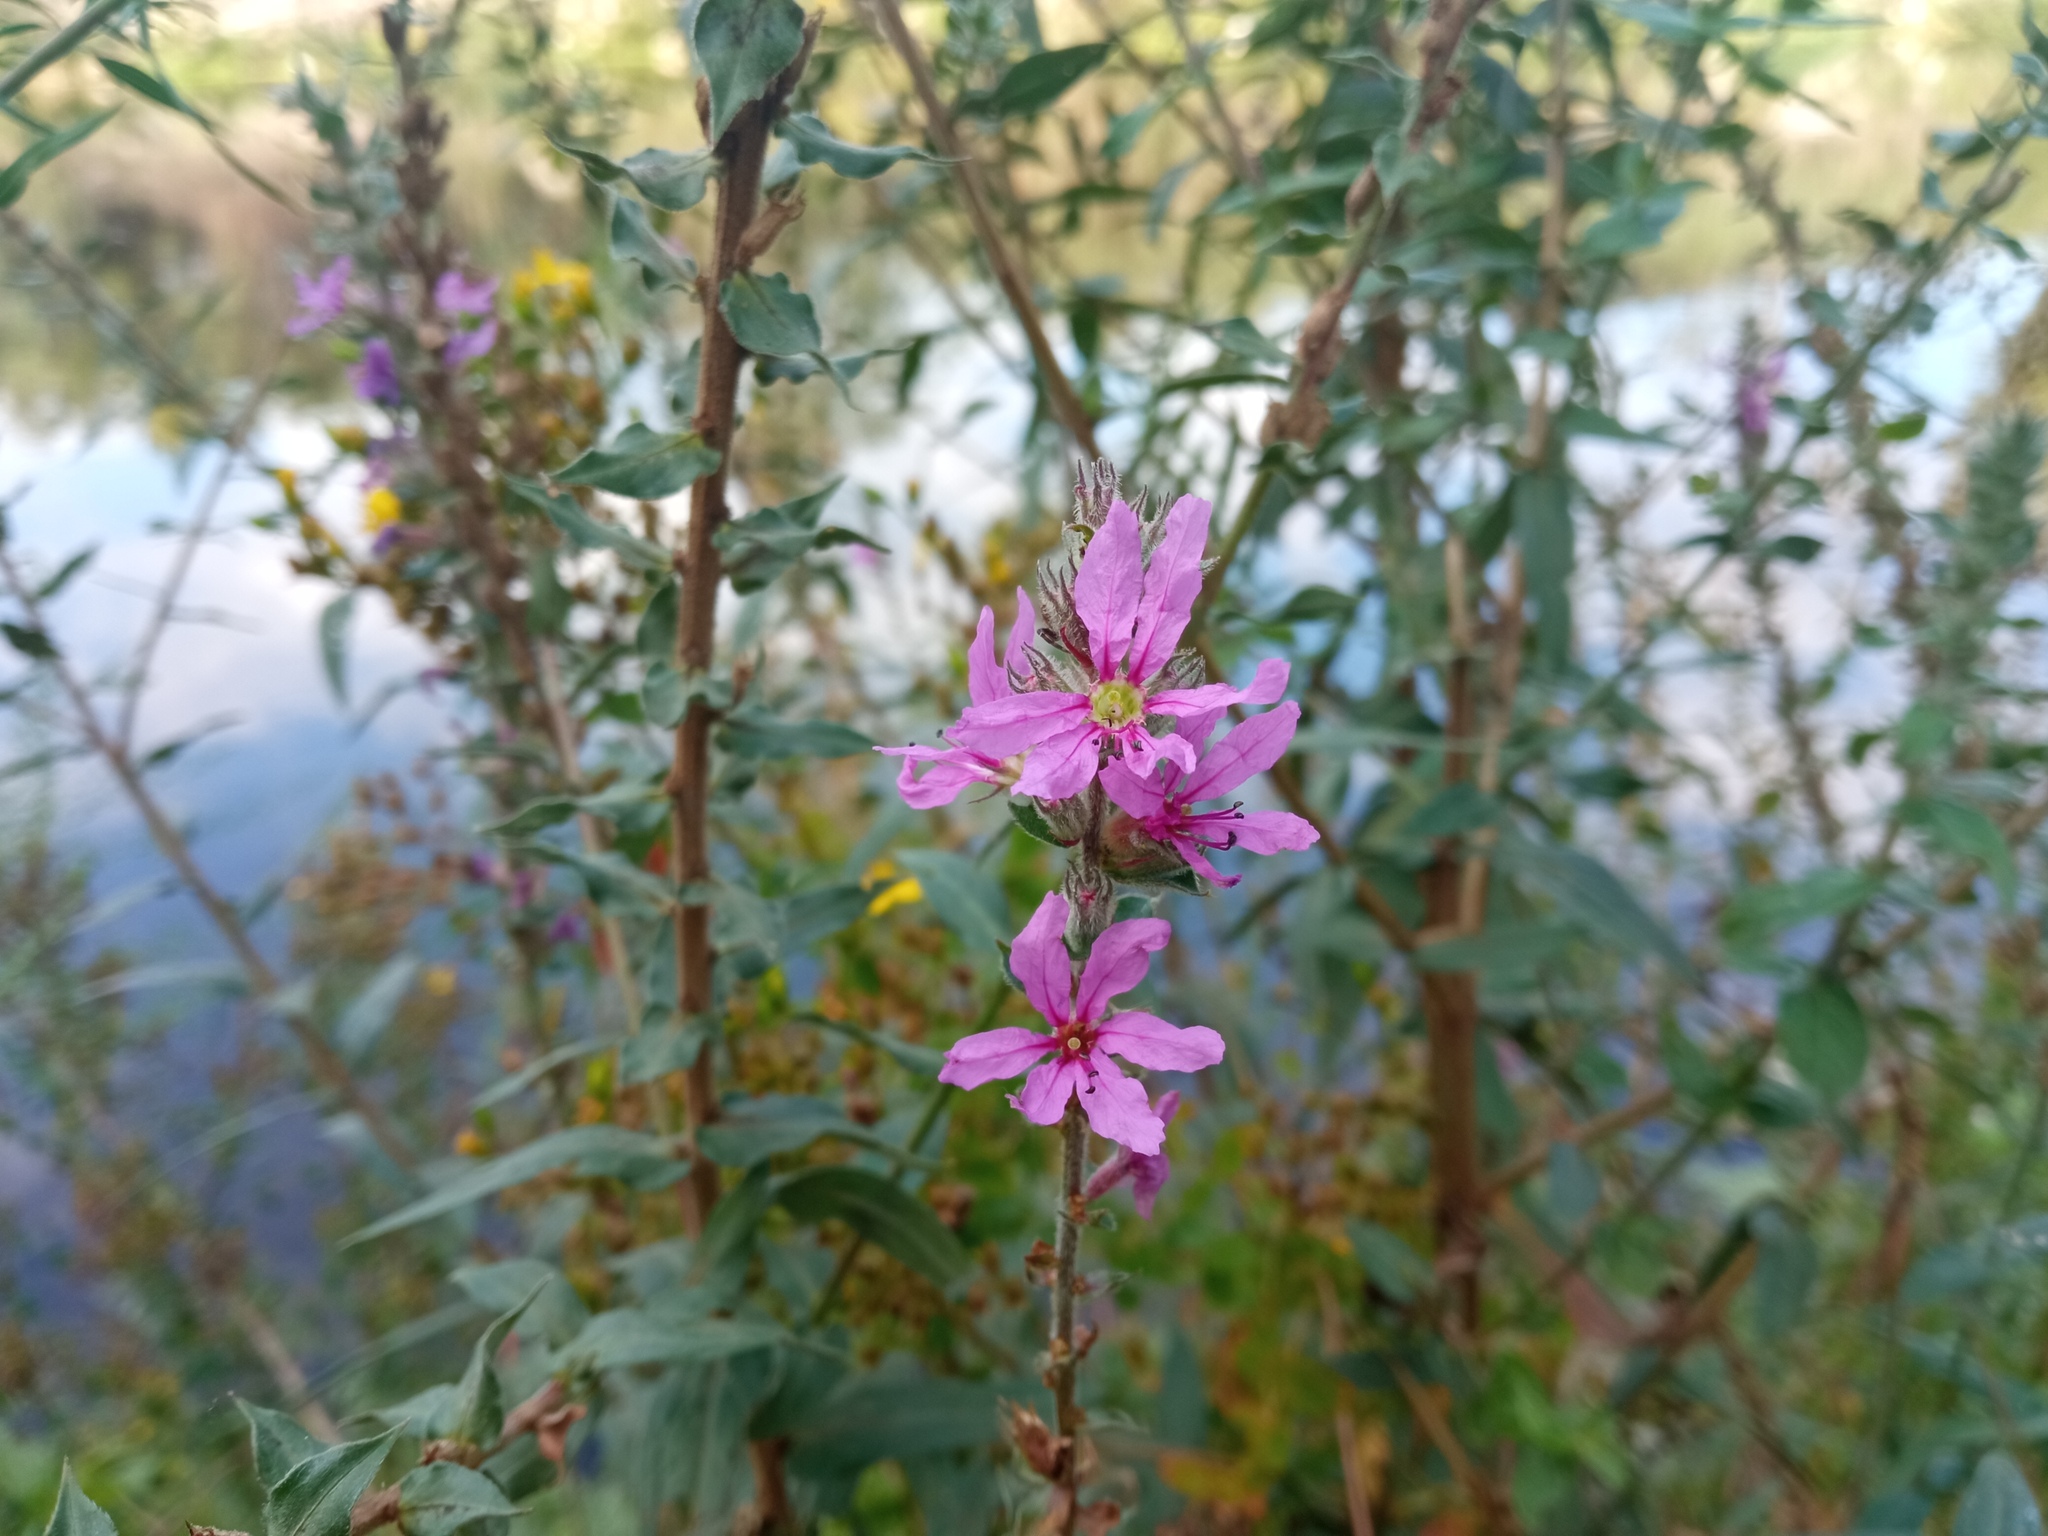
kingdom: Plantae
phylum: Tracheophyta
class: Magnoliopsida
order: Myrtales
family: Lythraceae
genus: Lythrum
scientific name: Lythrum salicaria
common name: Purple loosestrife
